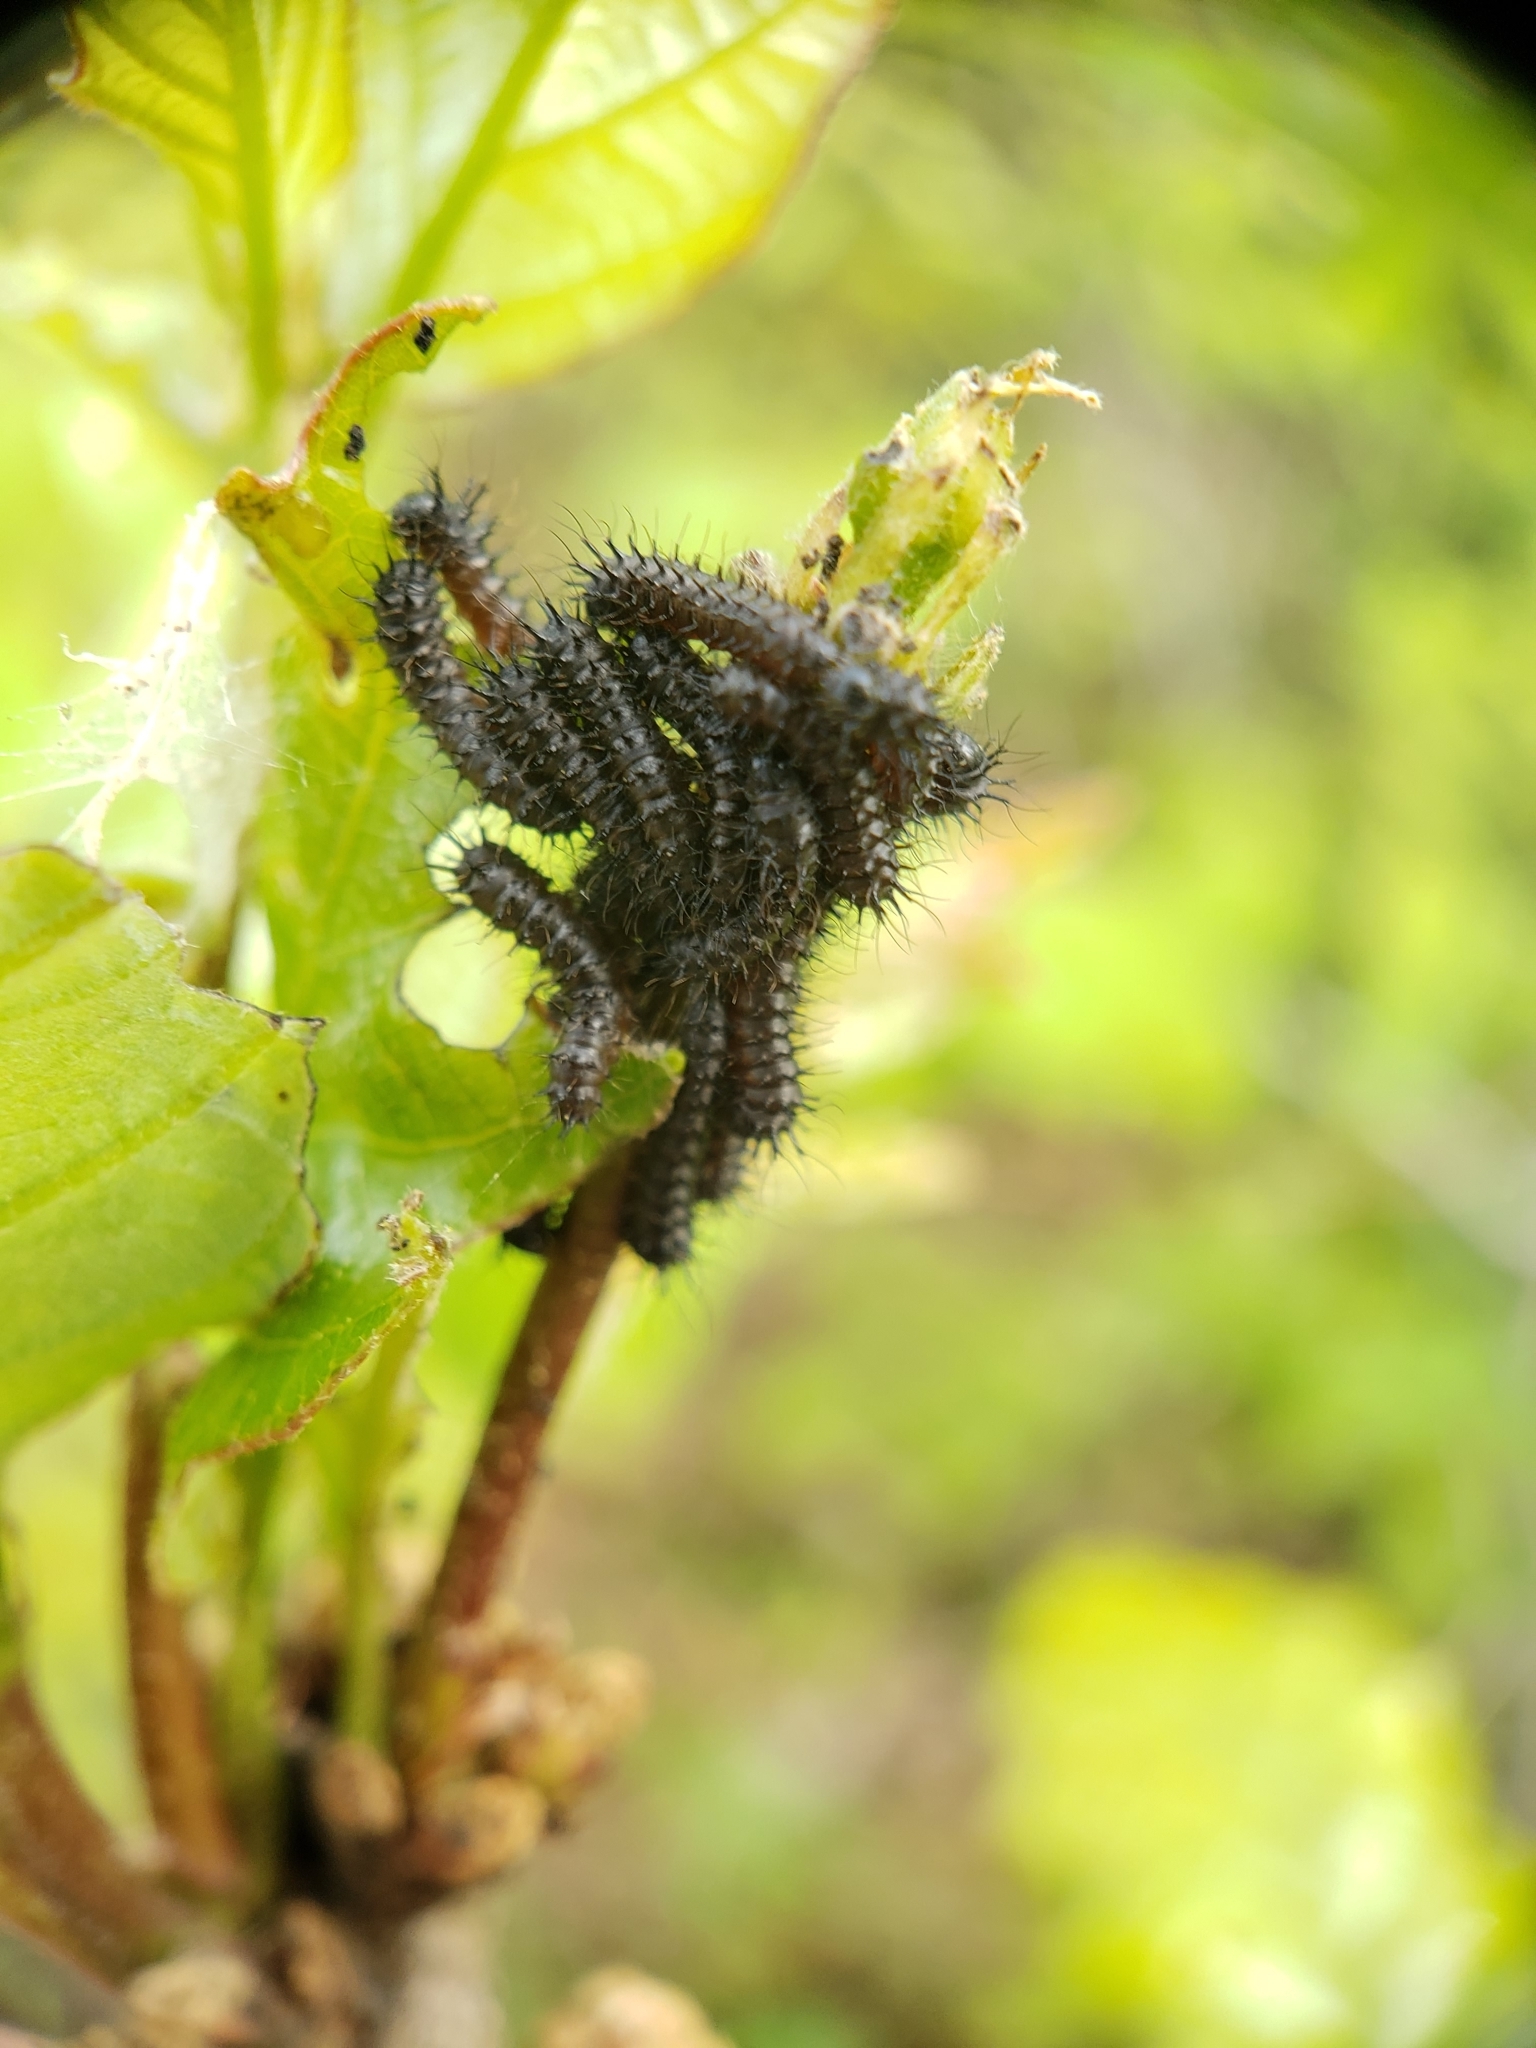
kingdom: Animalia
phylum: Arthropoda
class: Insecta
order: Lepidoptera
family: Saturniidae
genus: Hemileuca
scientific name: Hemileuca maia
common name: Eastern buckmoth
